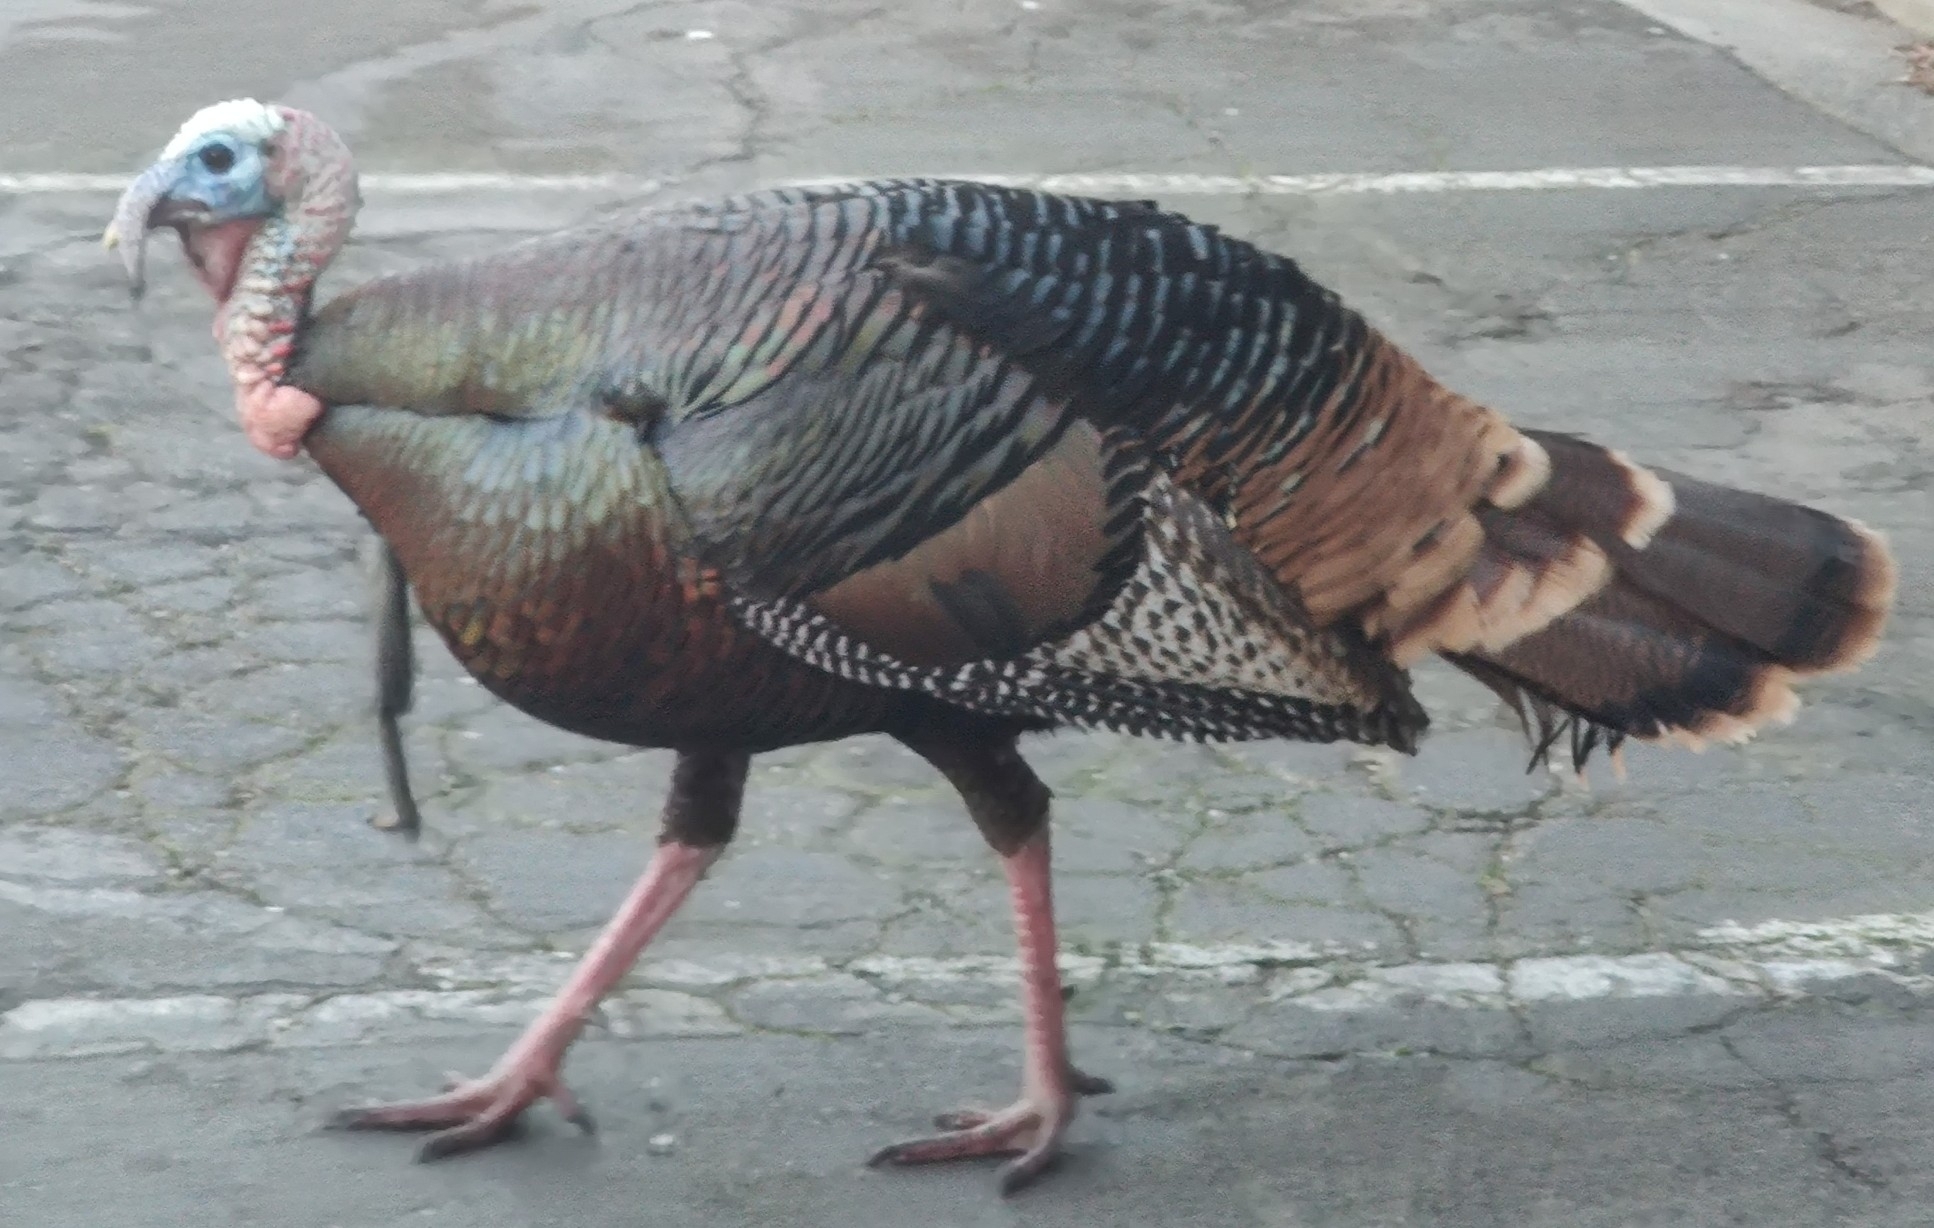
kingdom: Animalia
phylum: Chordata
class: Aves
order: Galliformes
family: Phasianidae
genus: Meleagris
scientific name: Meleagris gallopavo
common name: Wild turkey
